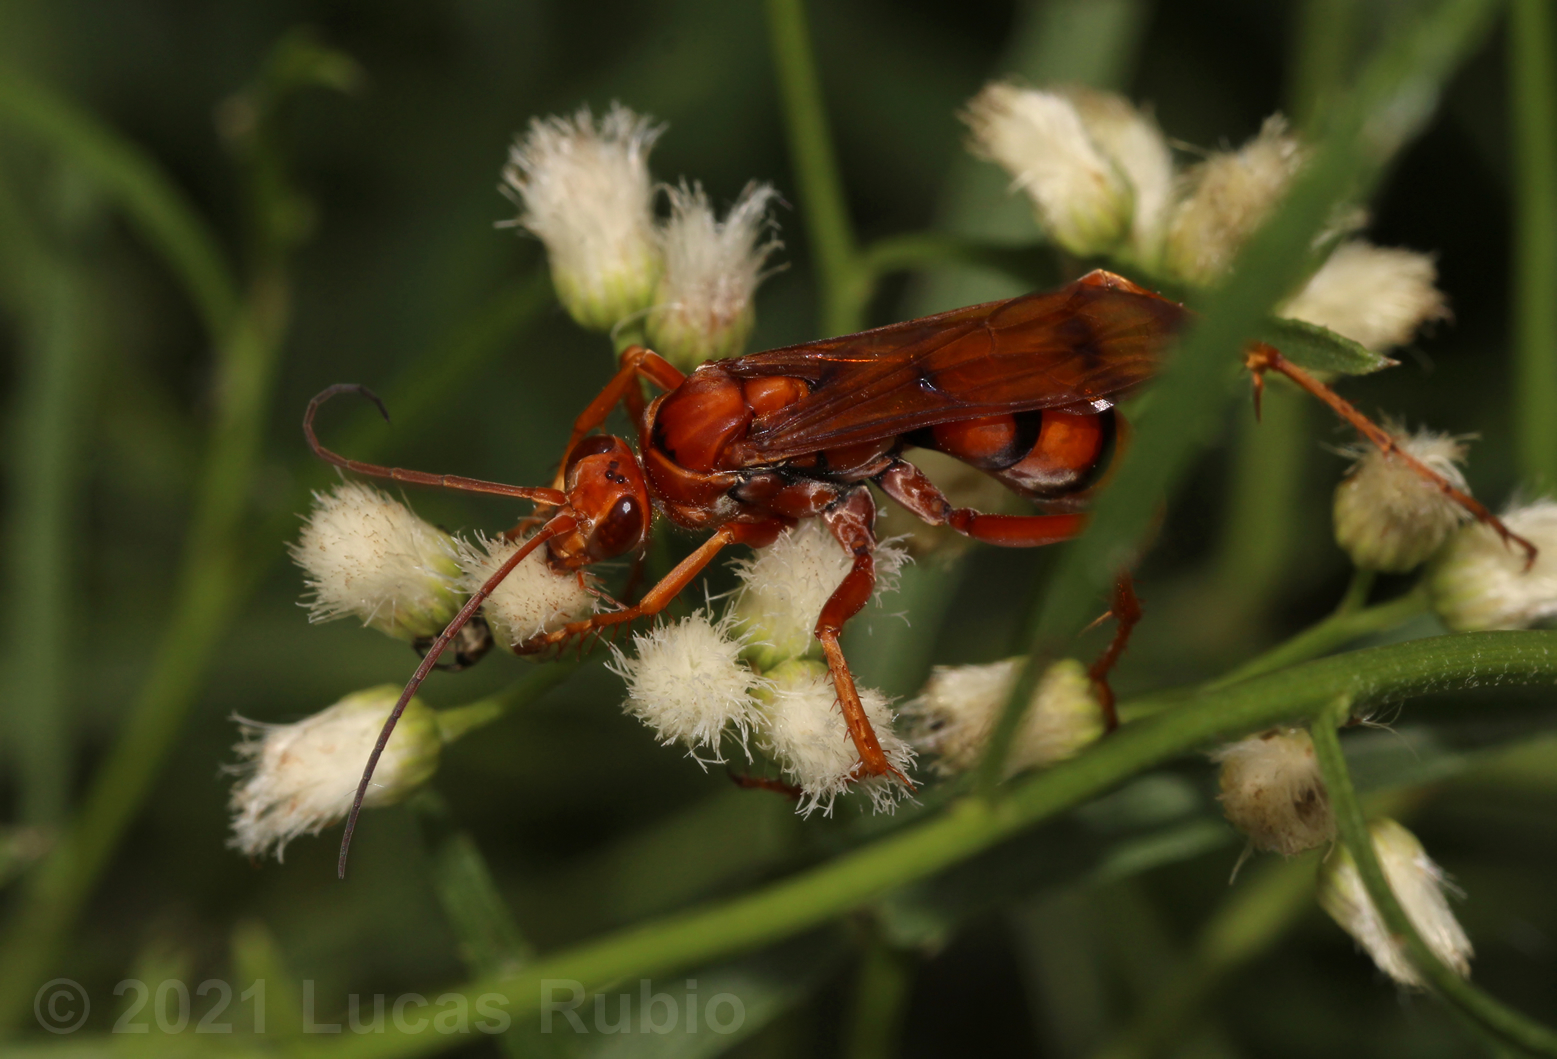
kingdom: Animalia
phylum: Arthropoda
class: Insecta
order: Hymenoptera
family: Pompilidae
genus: Tachypompilus
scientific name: Tachypompilus mendozae
